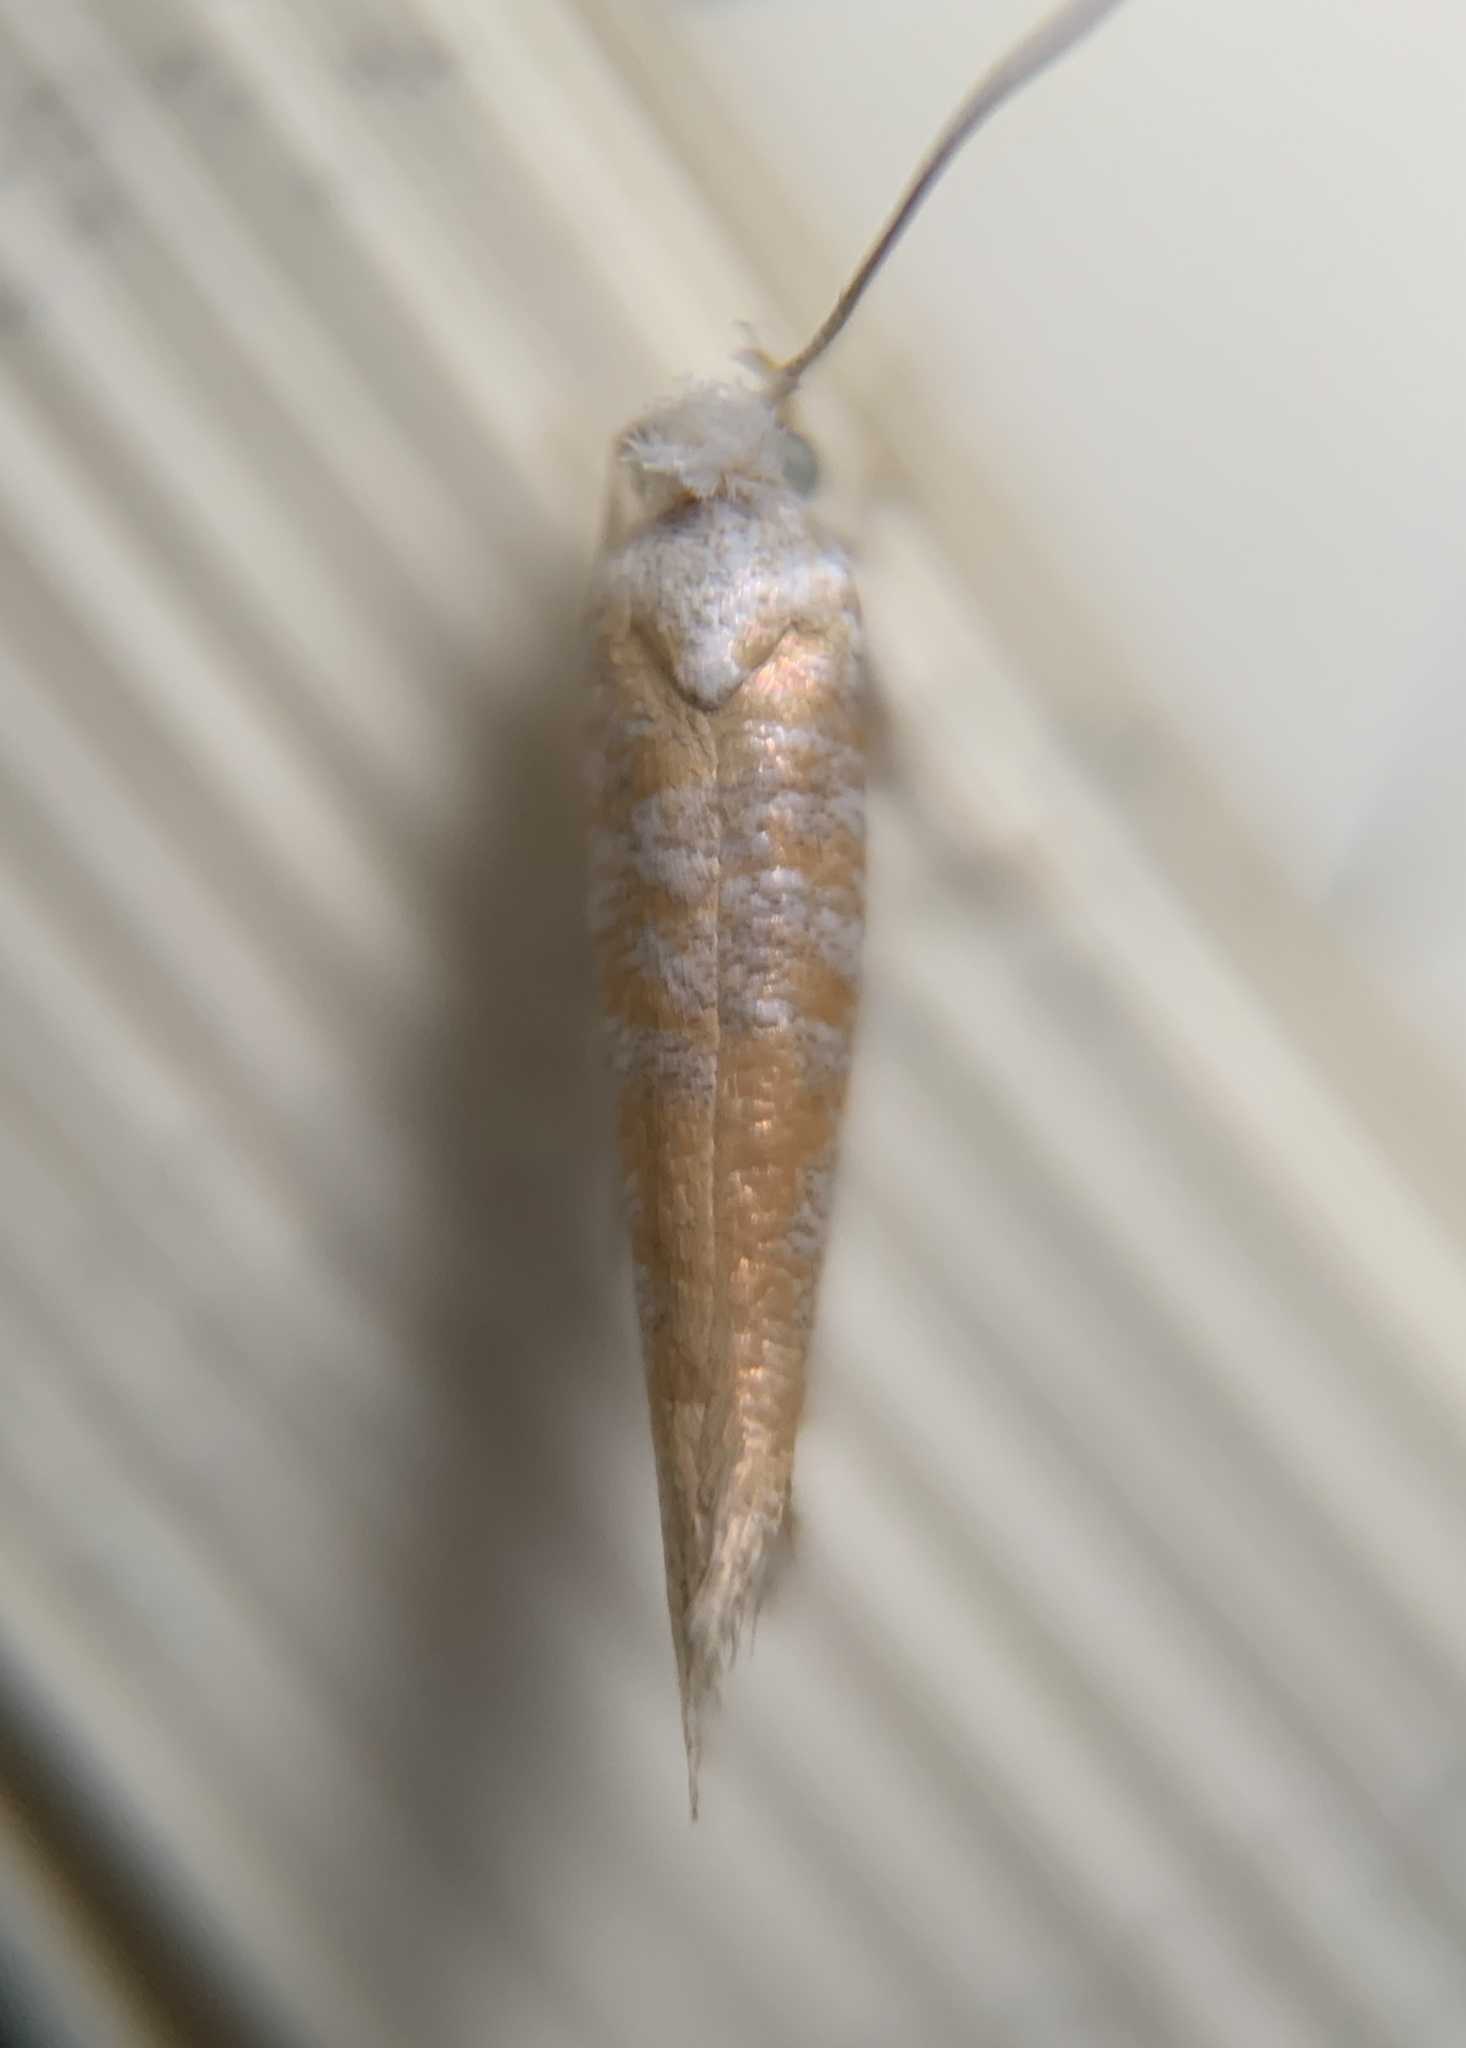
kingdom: Animalia
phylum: Arthropoda
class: Insecta
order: Lepidoptera
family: Yponomeutidae
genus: Zelleria
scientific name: Zelleria retiniella
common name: Brindled zelleria
